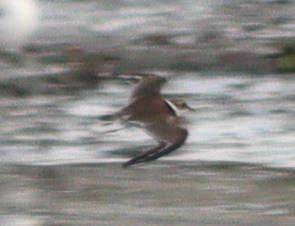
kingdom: Animalia
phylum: Chordata
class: Aves
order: Charadriiformes
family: Charadriidae
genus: Charadrius
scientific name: Charadrius hiaticula
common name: Common ringed plover
